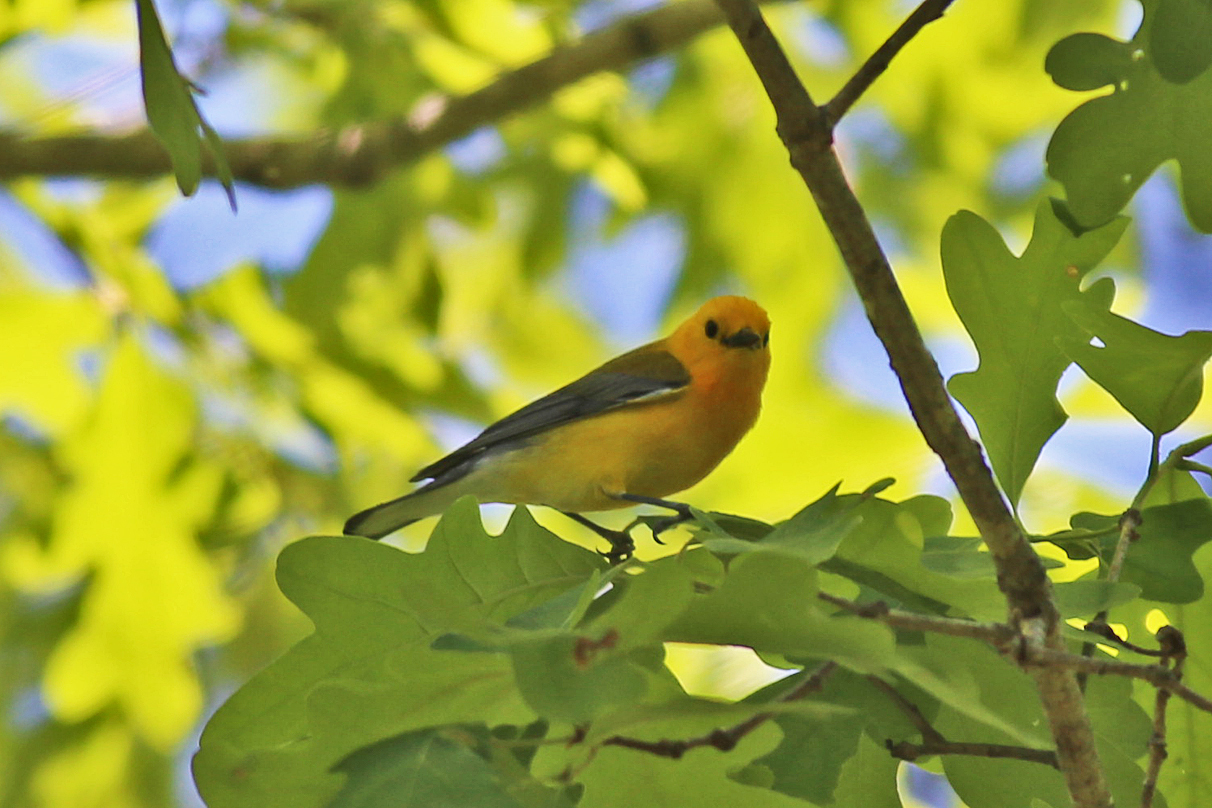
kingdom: Animalia
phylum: Chordata
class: Aves
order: Passeriformes
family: Parulidae
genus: Protonotaria
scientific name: Protonotaria citrea
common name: Prothonotary warbler
